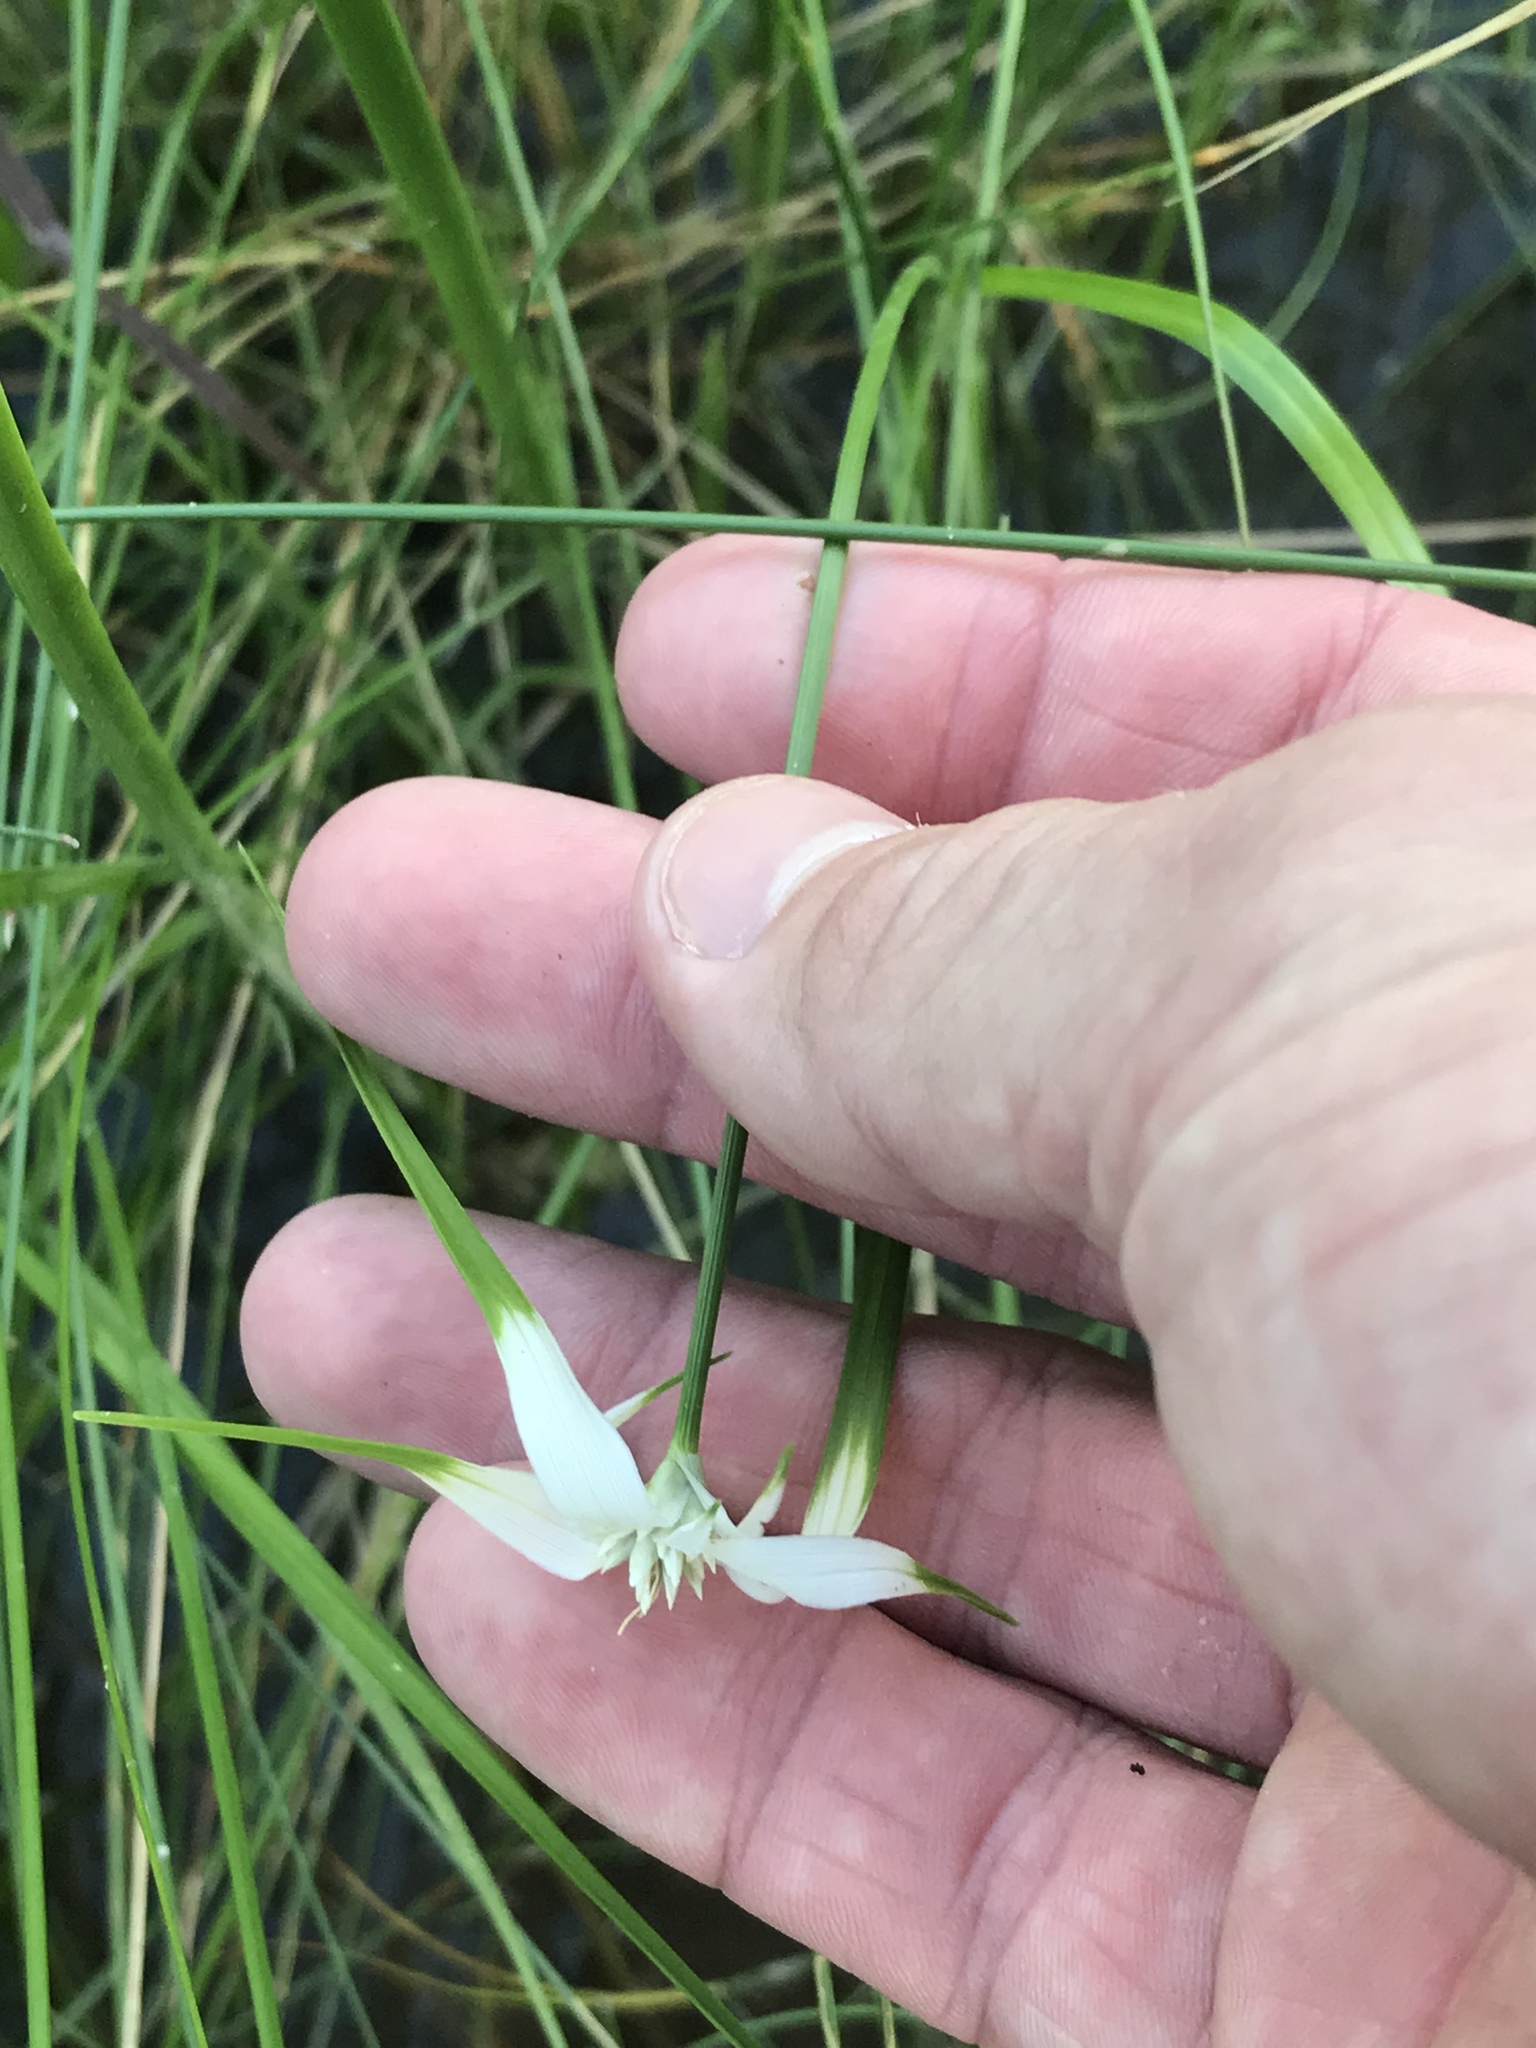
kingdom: Plantae
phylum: Tracheophyta
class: Liliopsida
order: Poales
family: Cyperaceae
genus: Rhynchospora
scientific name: Rhynchospora colorata
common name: Star sedge
